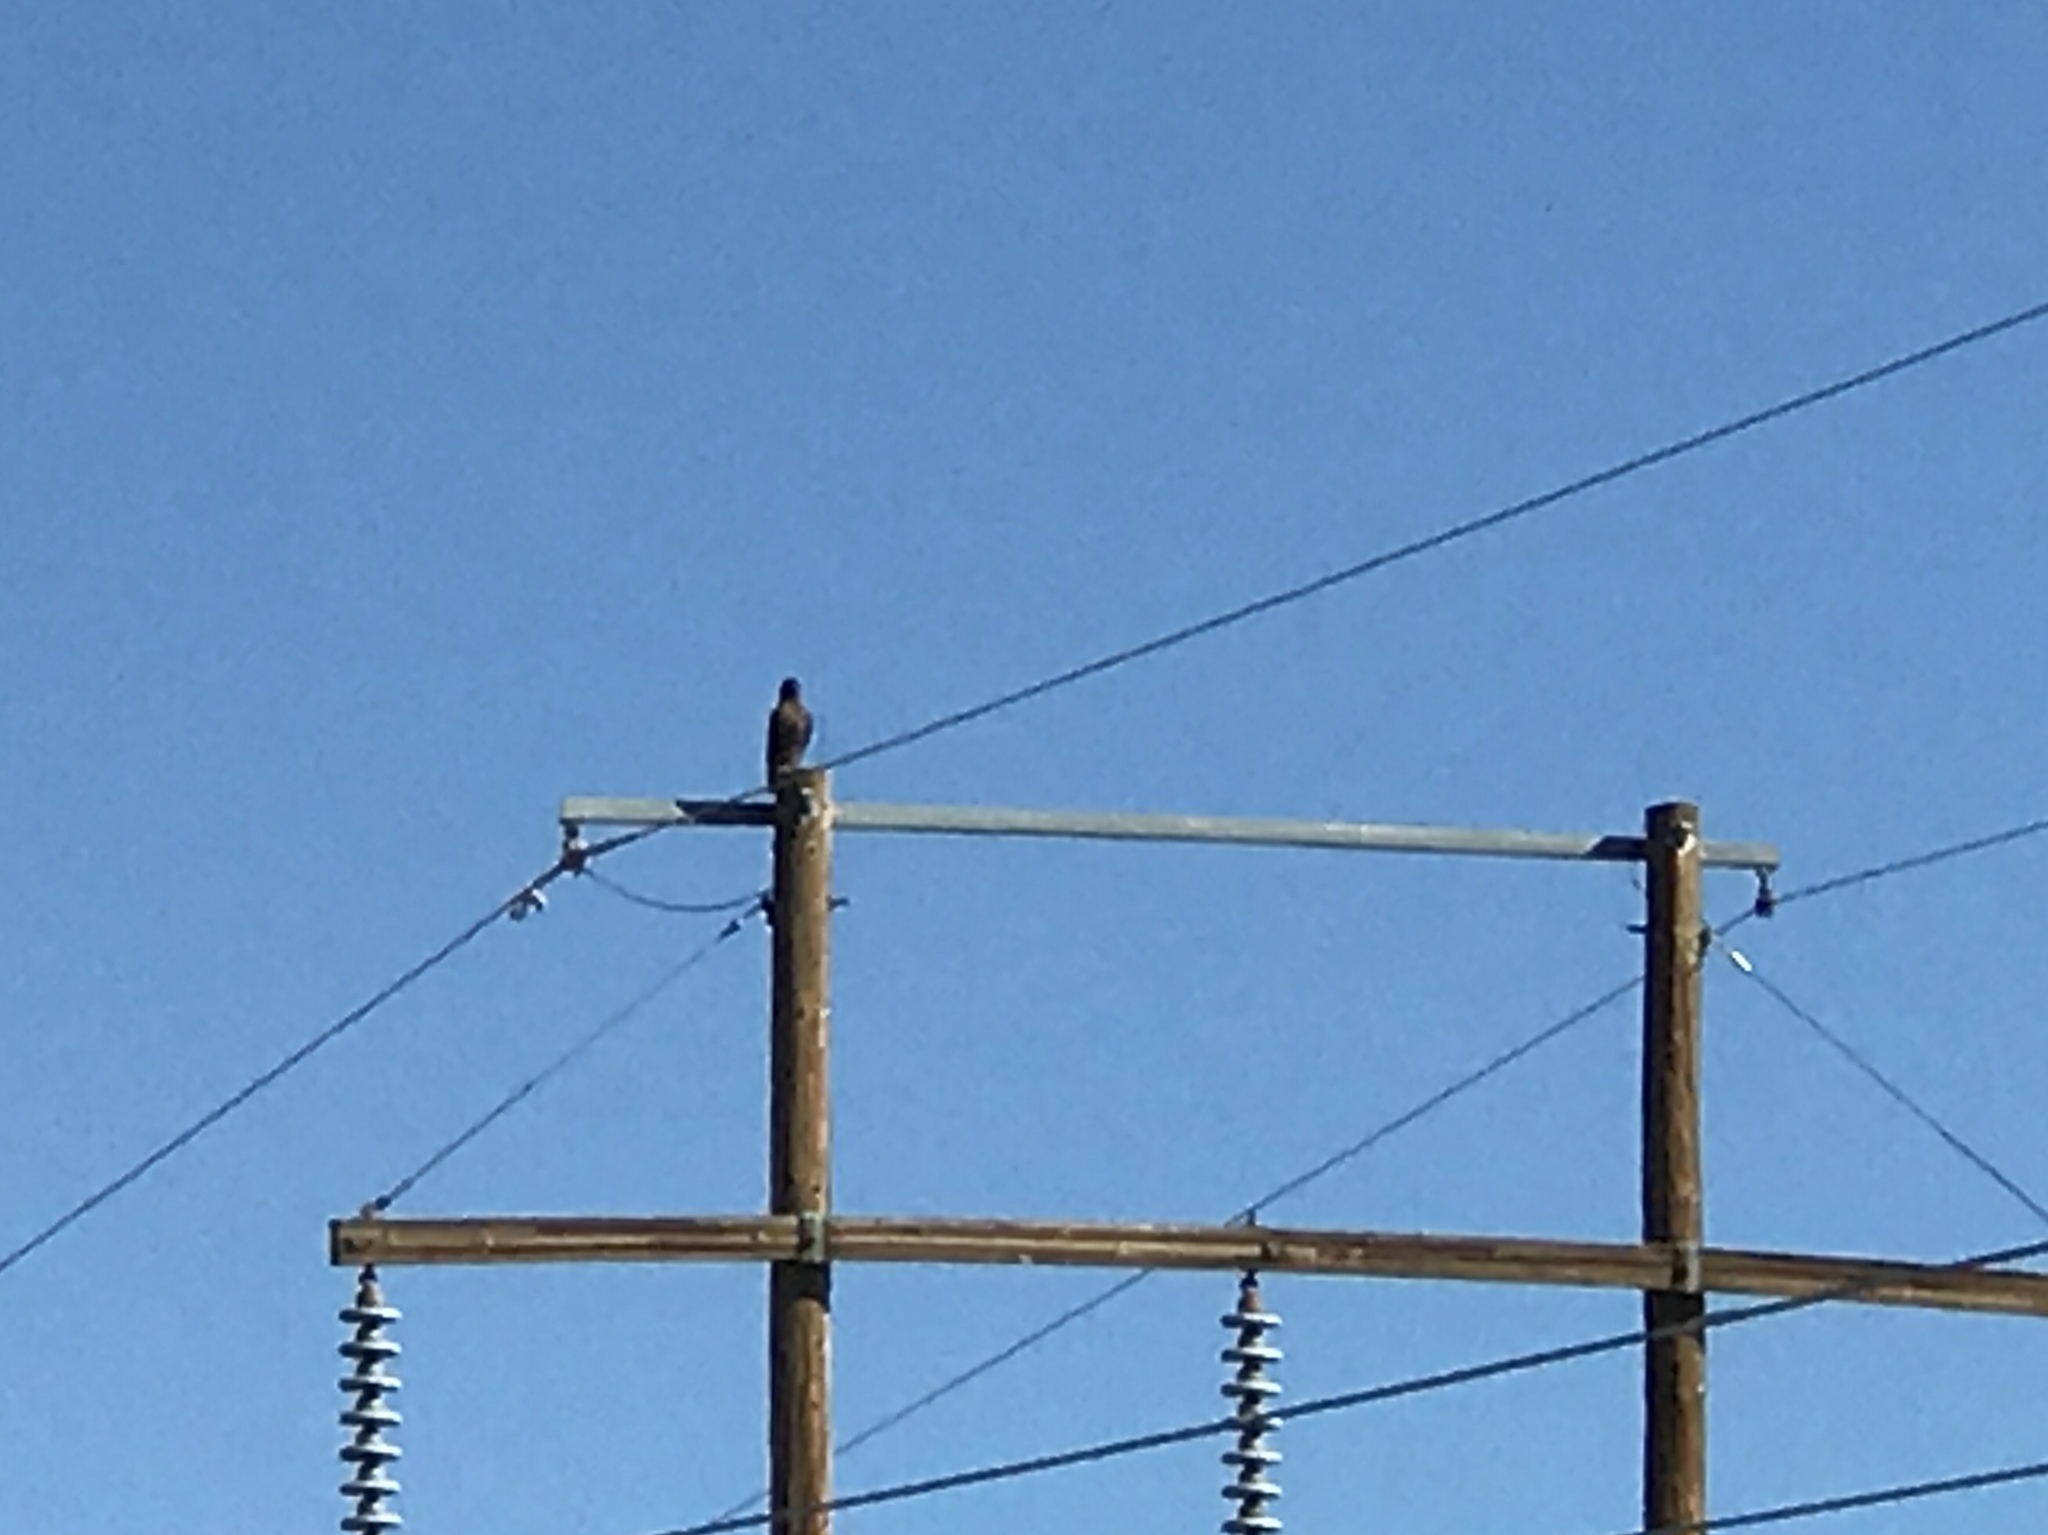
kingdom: Animalia
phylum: Chordata
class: Aves
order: Accipitriformes
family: Accipitridae
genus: Buteo
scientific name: Buteo jamaicensis
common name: Red-tailed hawk
